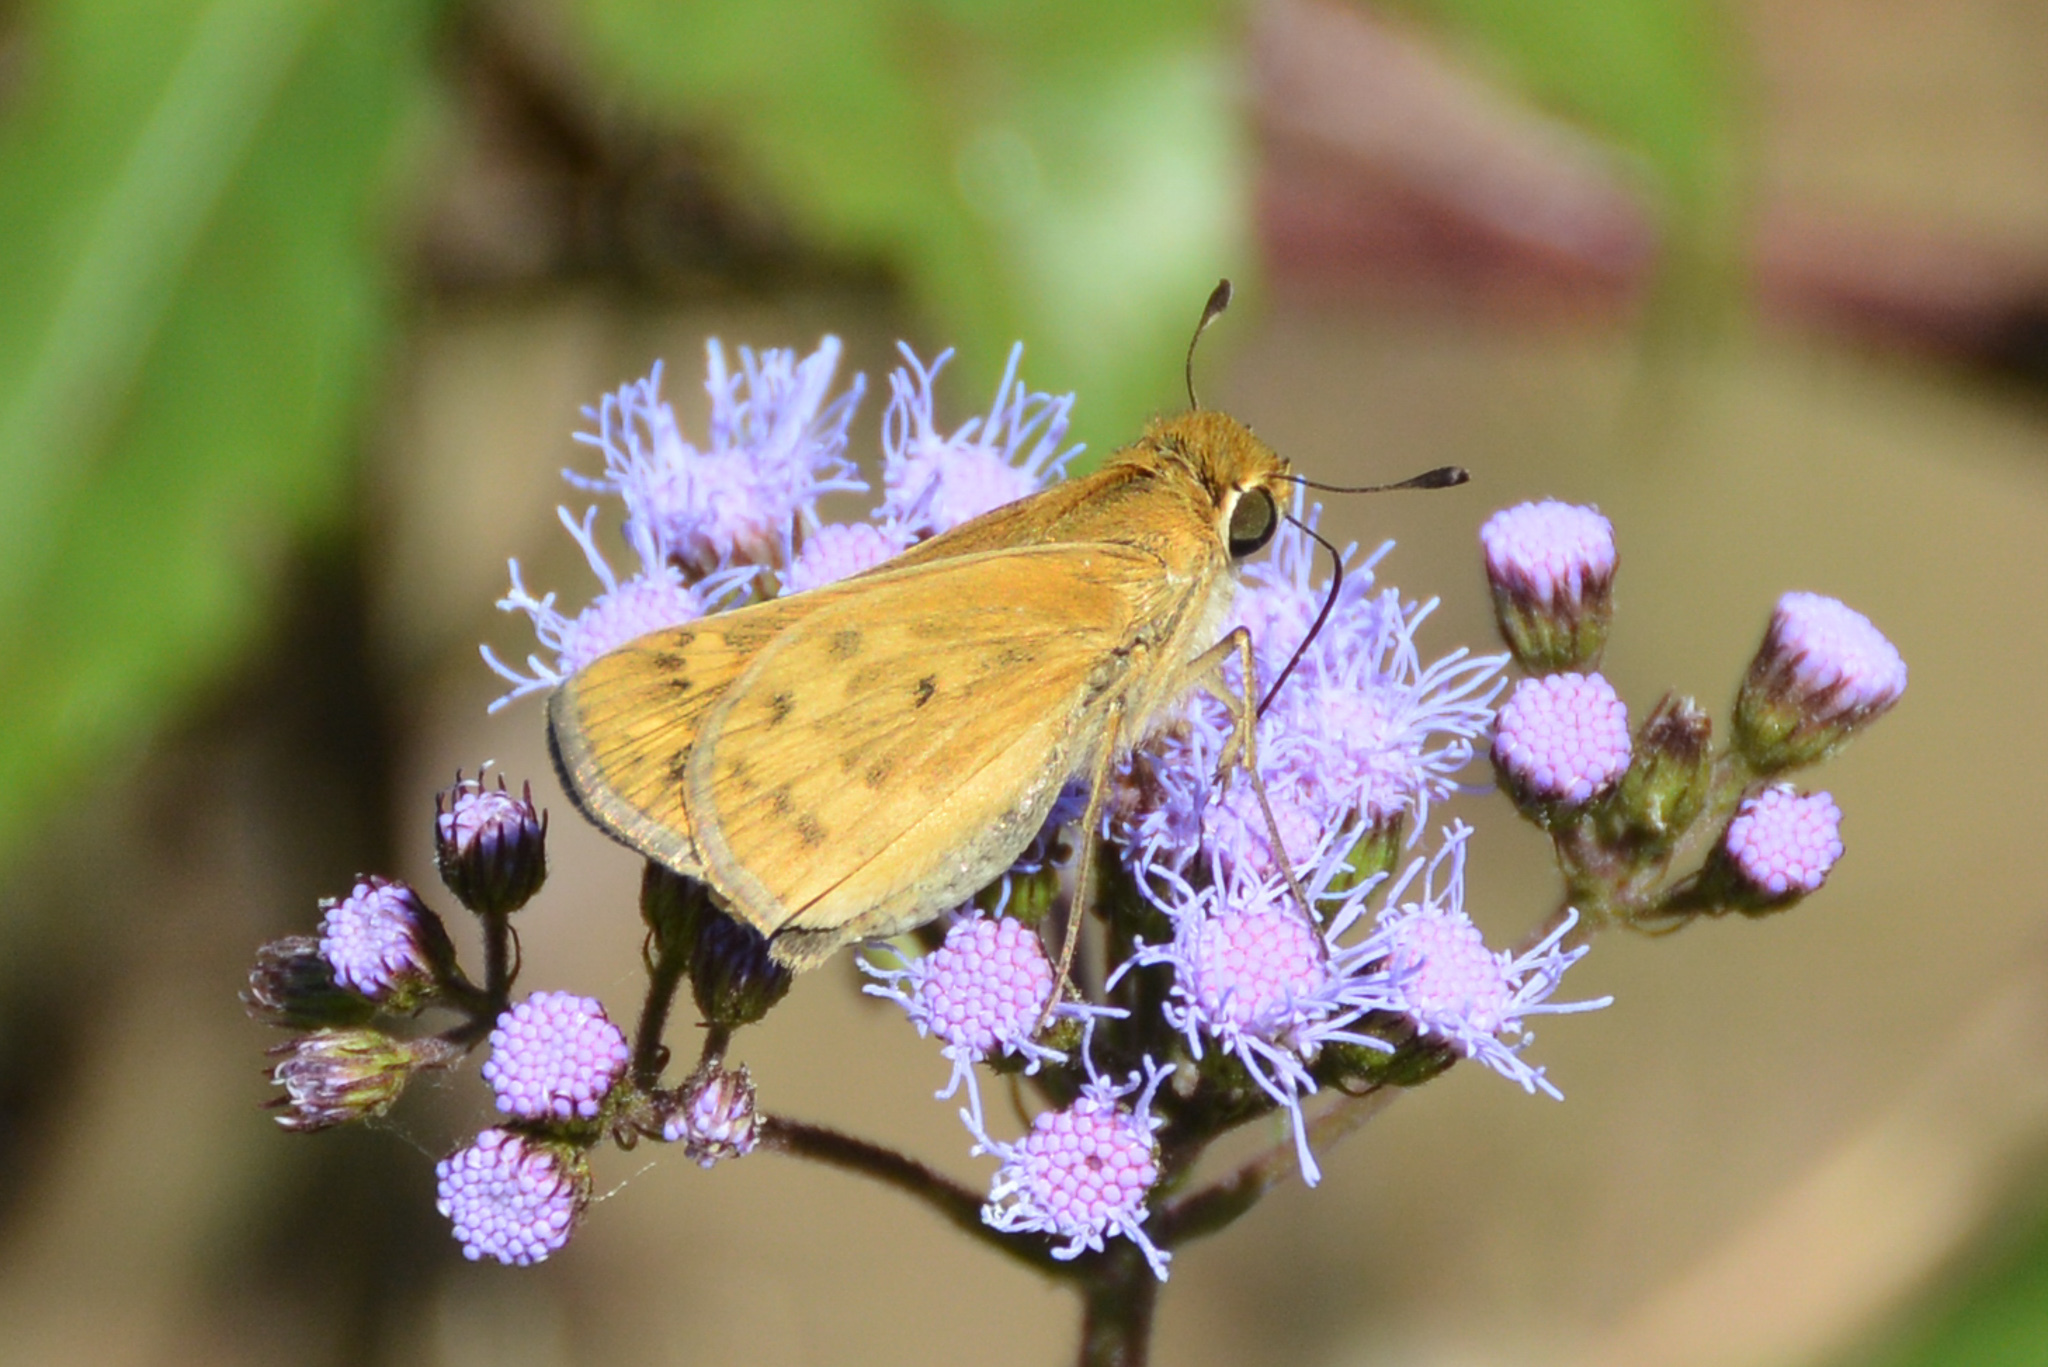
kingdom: Animalia
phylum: Arthropoda
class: Insecta
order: Lepidoptera
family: Hesperiidae
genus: Hylephila
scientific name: Hylephila phyleus
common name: Fiery skipper
